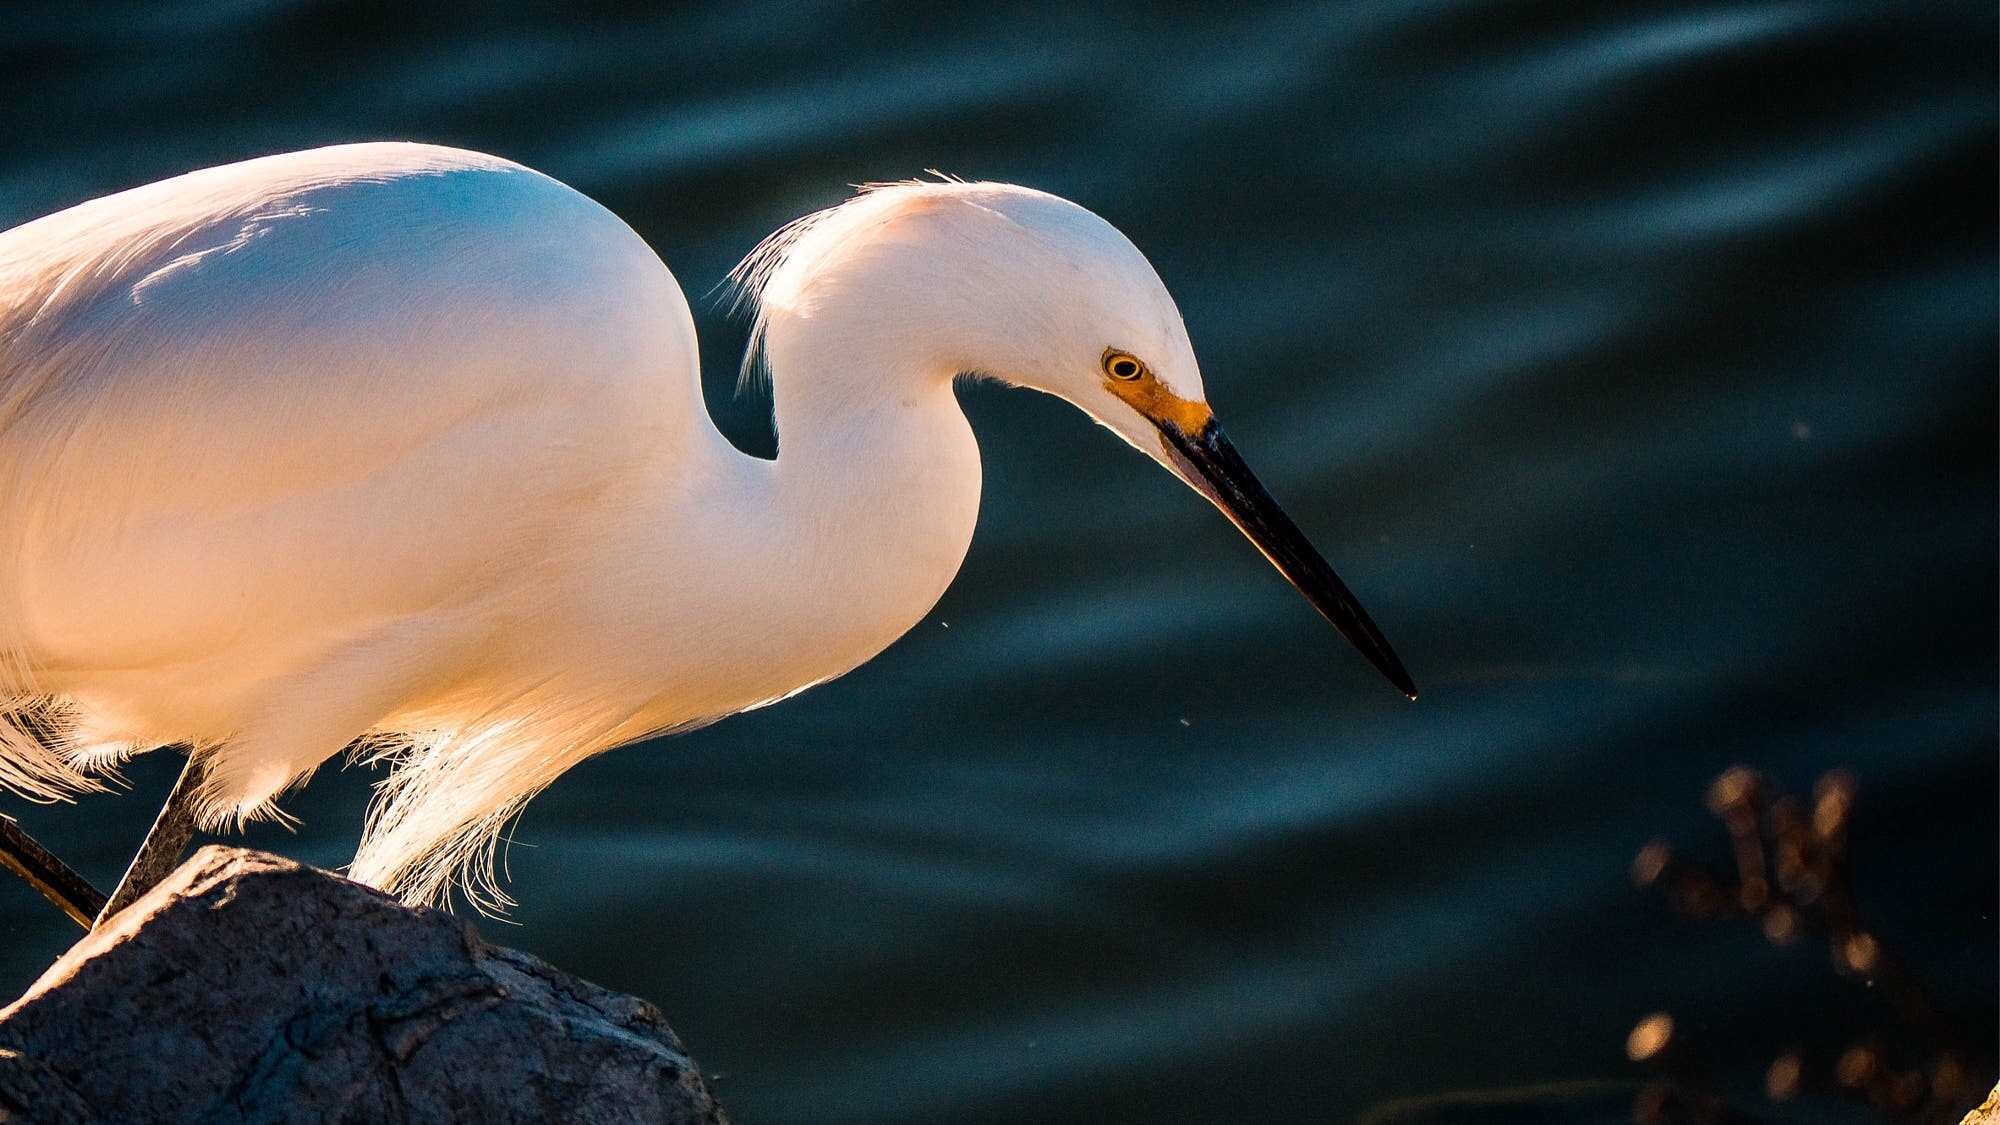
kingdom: Animalia
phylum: Chordata
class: Aves
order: Pelecaniformes
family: Ardeidae
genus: Egretta
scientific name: Egretta thula
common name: Snowy egret
